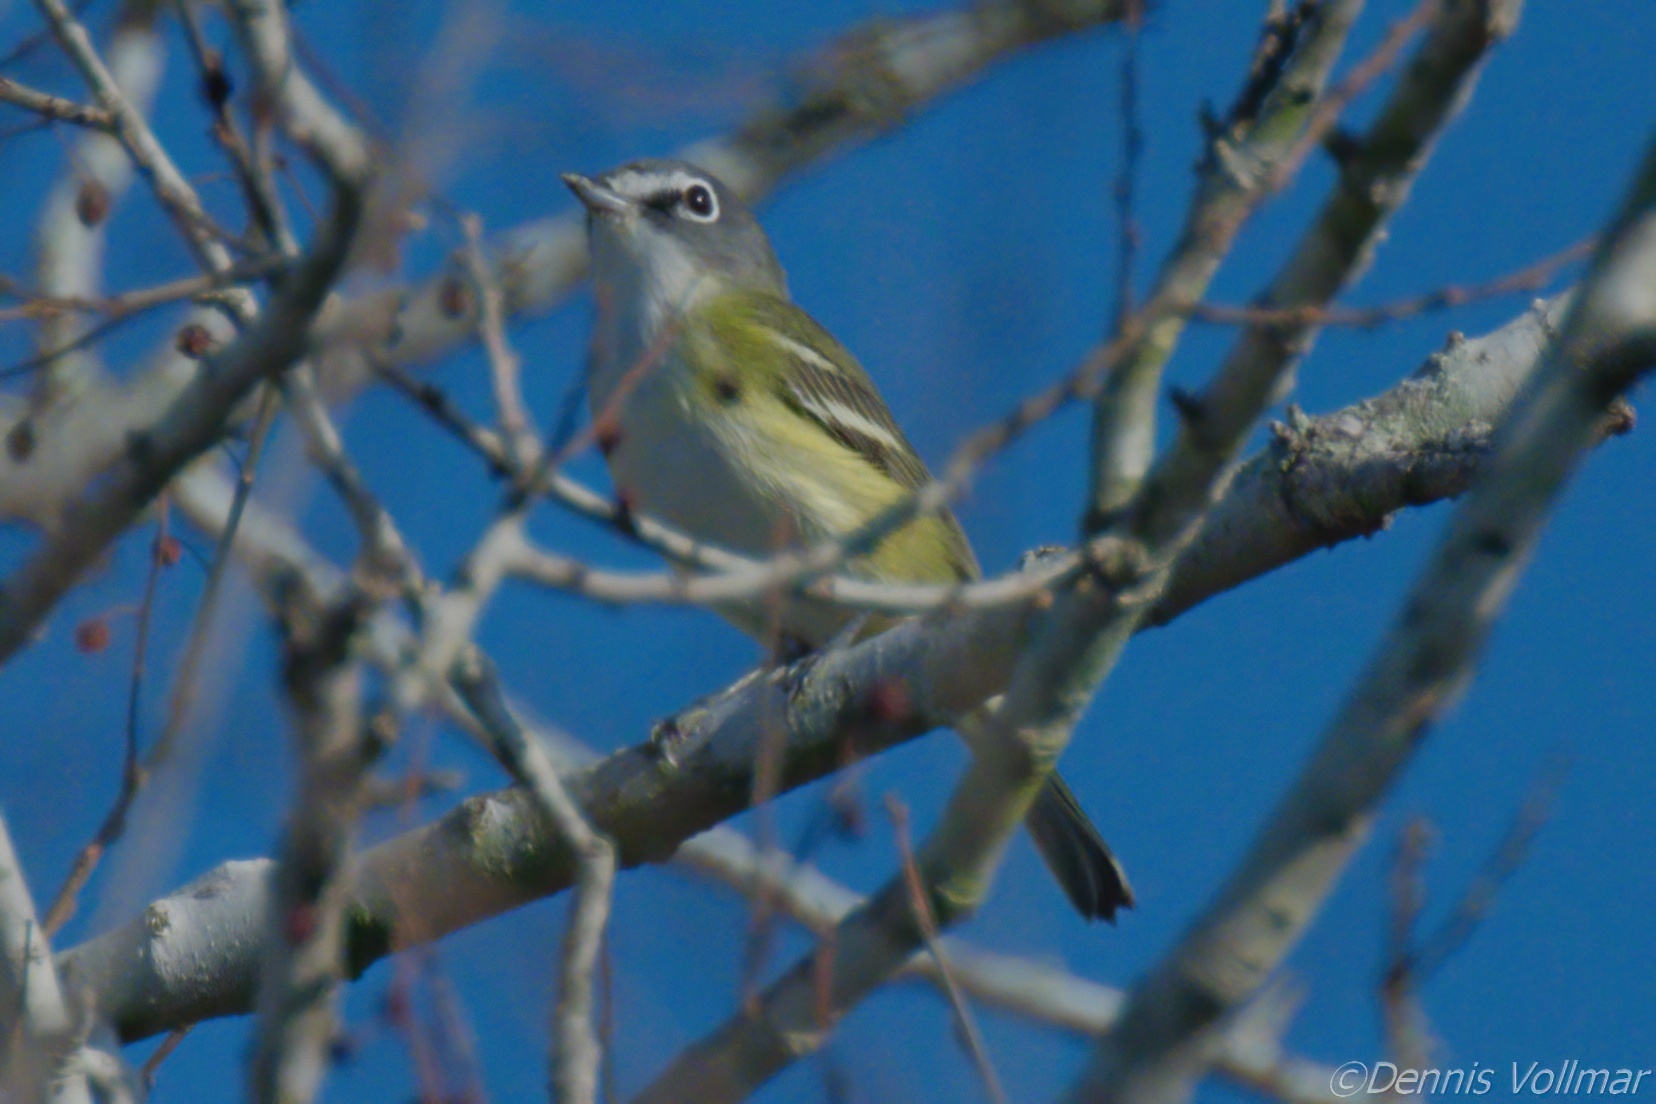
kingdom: Animalia
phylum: Chordata
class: Aves
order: Passeriformes
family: Vireonidae
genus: Vireo
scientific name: Vireo solitarius
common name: Blue-headed vireo
